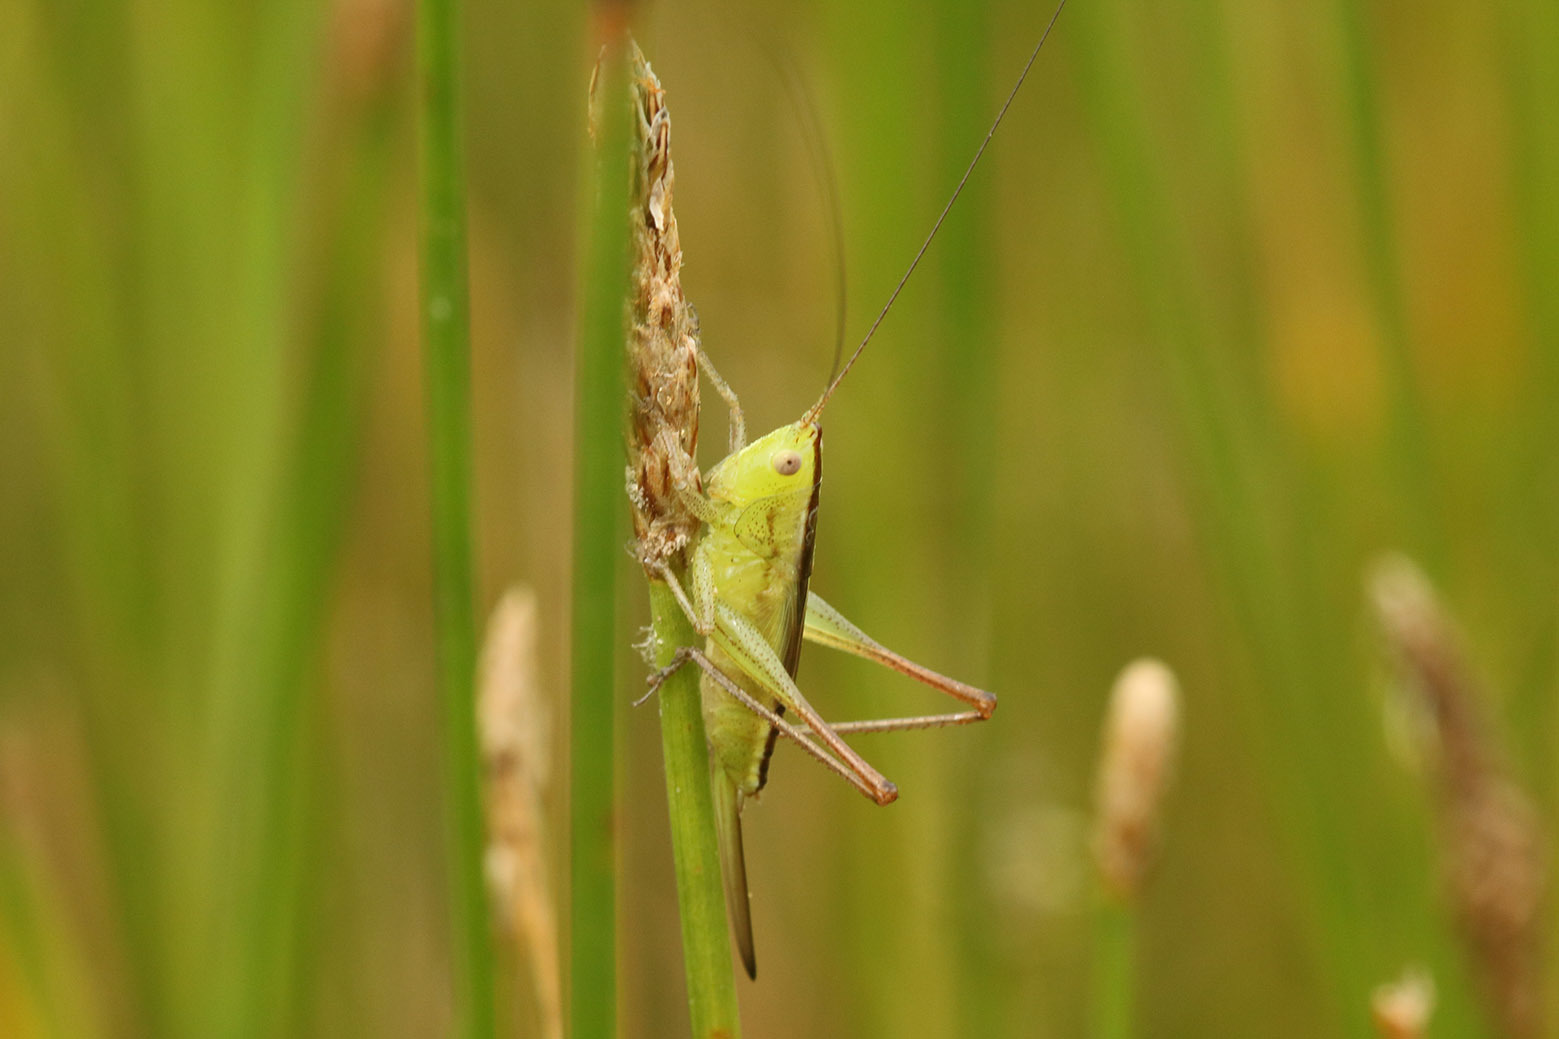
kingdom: Animalia
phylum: Arthropoda
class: Insecta
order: Orthoptera
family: Tettigoniidae
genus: Conocephalus
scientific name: Conocephalus longipes
